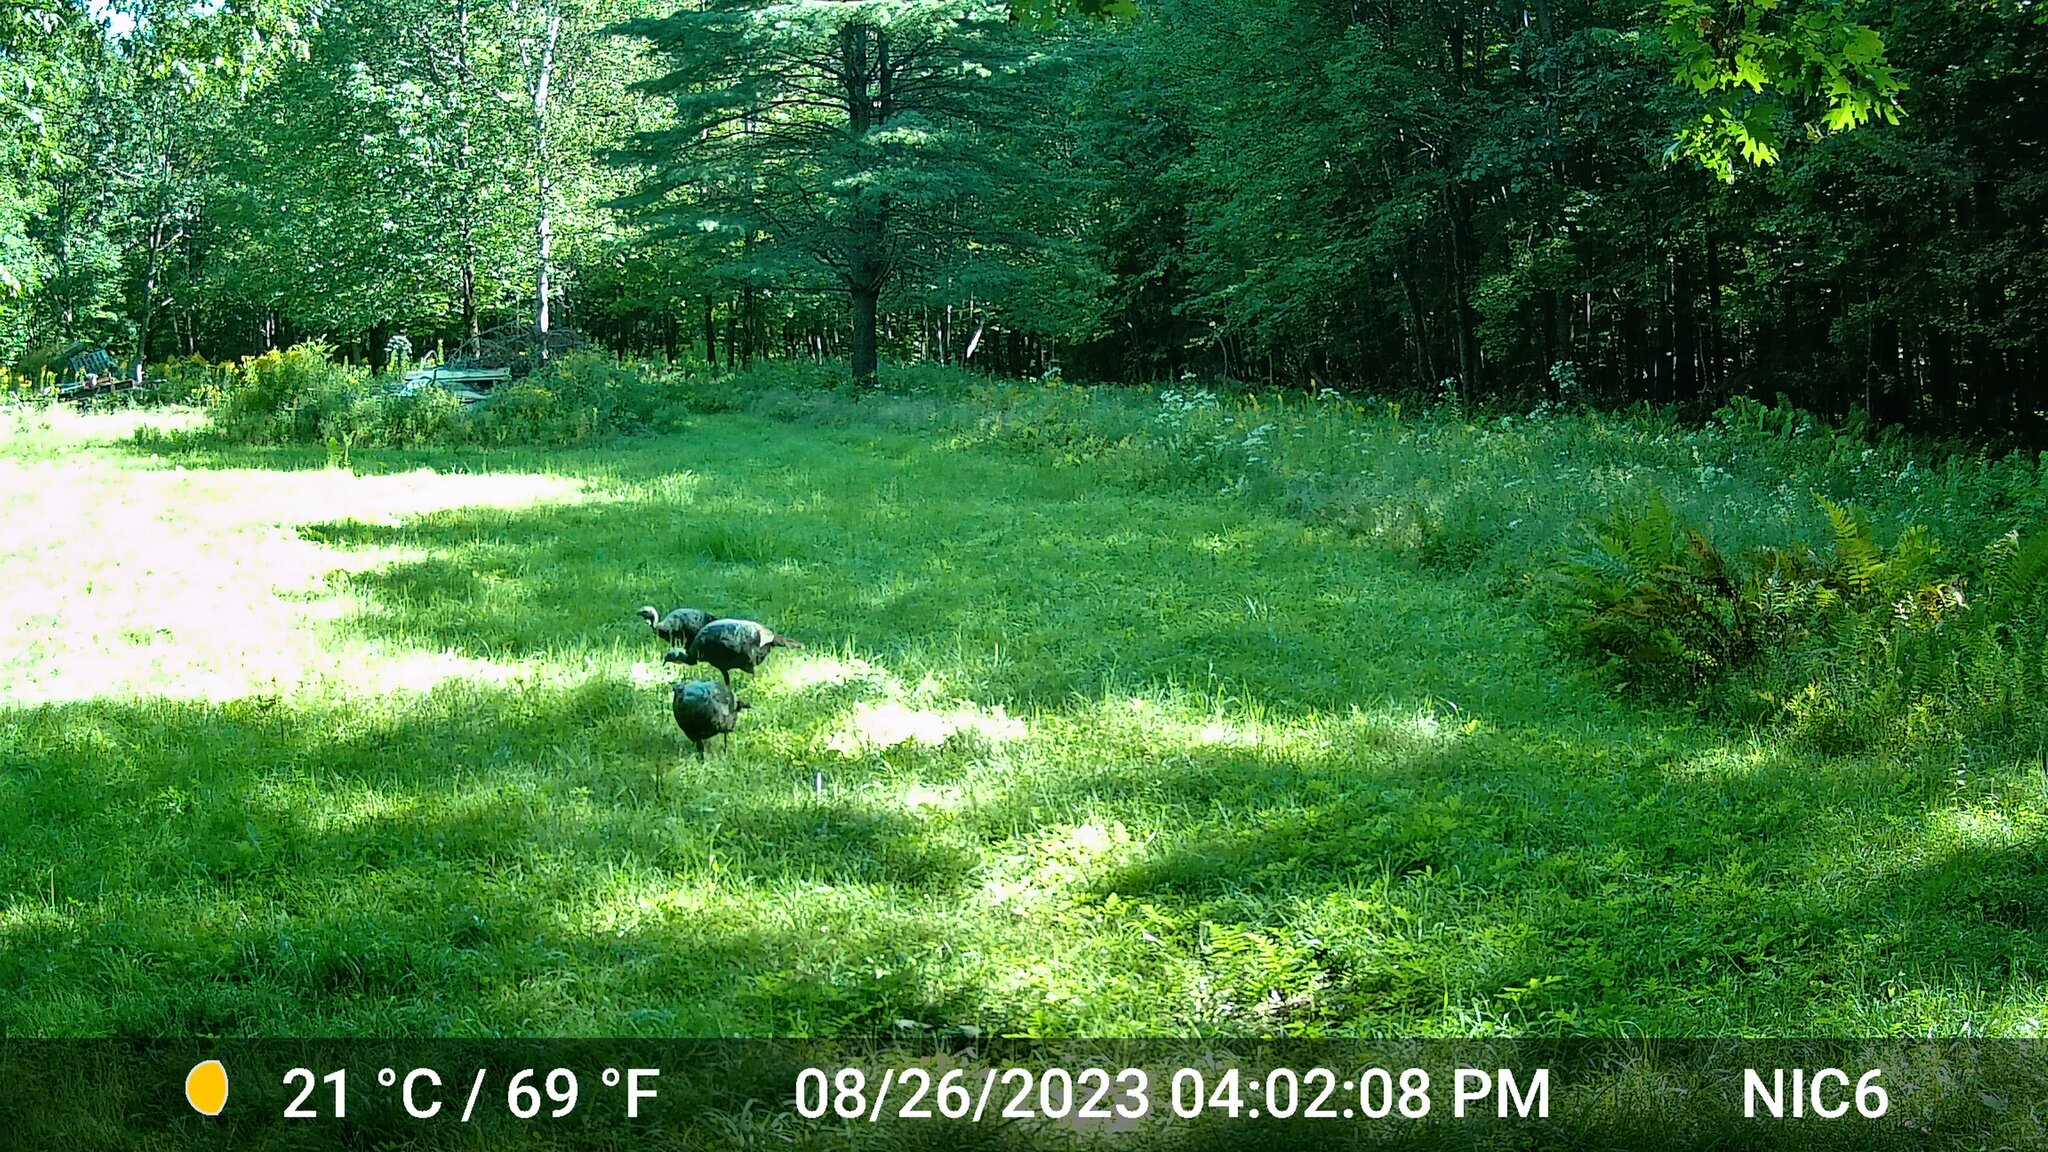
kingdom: Animalia
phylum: Chordata
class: Aves
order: Galliformes
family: Phasianidae
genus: Meleagris
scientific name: Meleagris gallopavo
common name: Wild turkey
